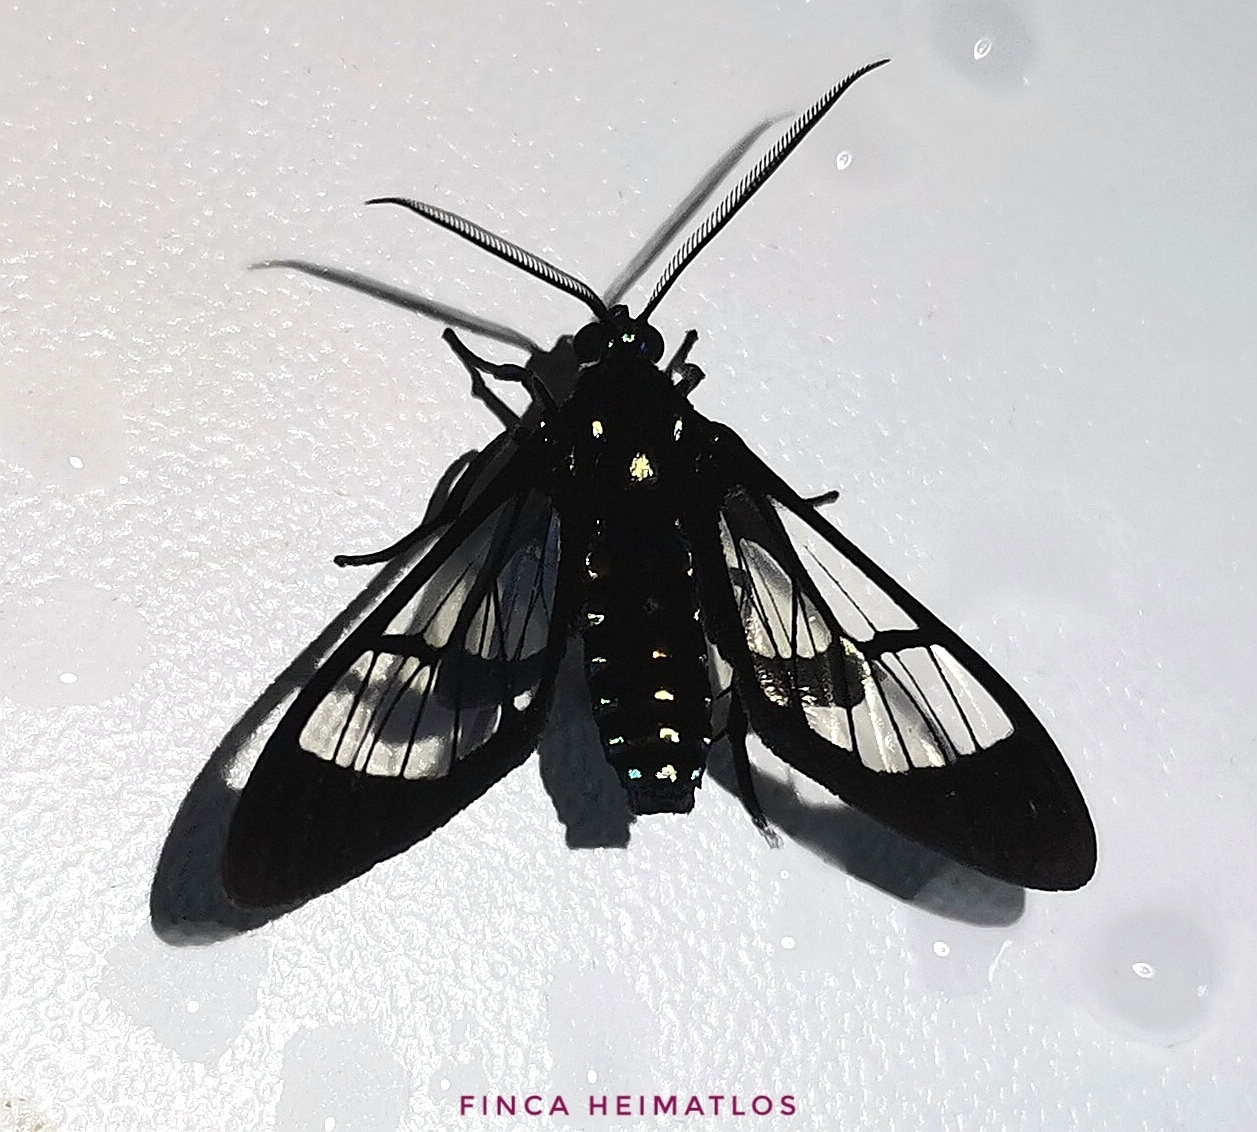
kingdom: Animalia
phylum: Arthropoda
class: Insecta
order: Lepidoptera
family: Erebidae
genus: Cosmosoma
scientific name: Cosmosoma xanthosticta
